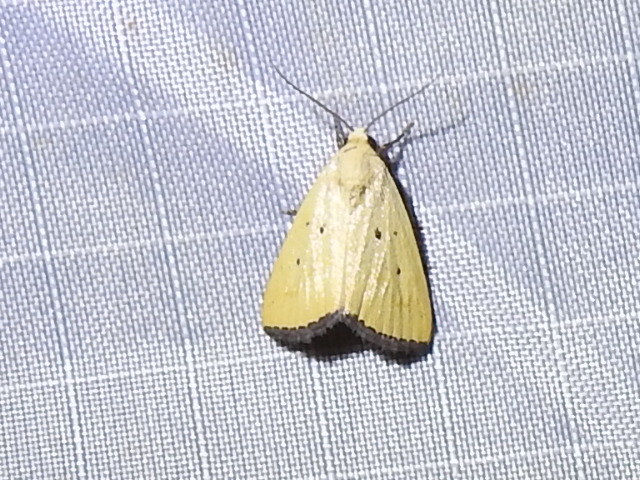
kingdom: Animalia
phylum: Arthropoda
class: Insecta
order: Lepidoptera
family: Noctuidae
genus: Marimatha
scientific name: Marimatha nigrofimbria
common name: Black-bordered lemon moth
